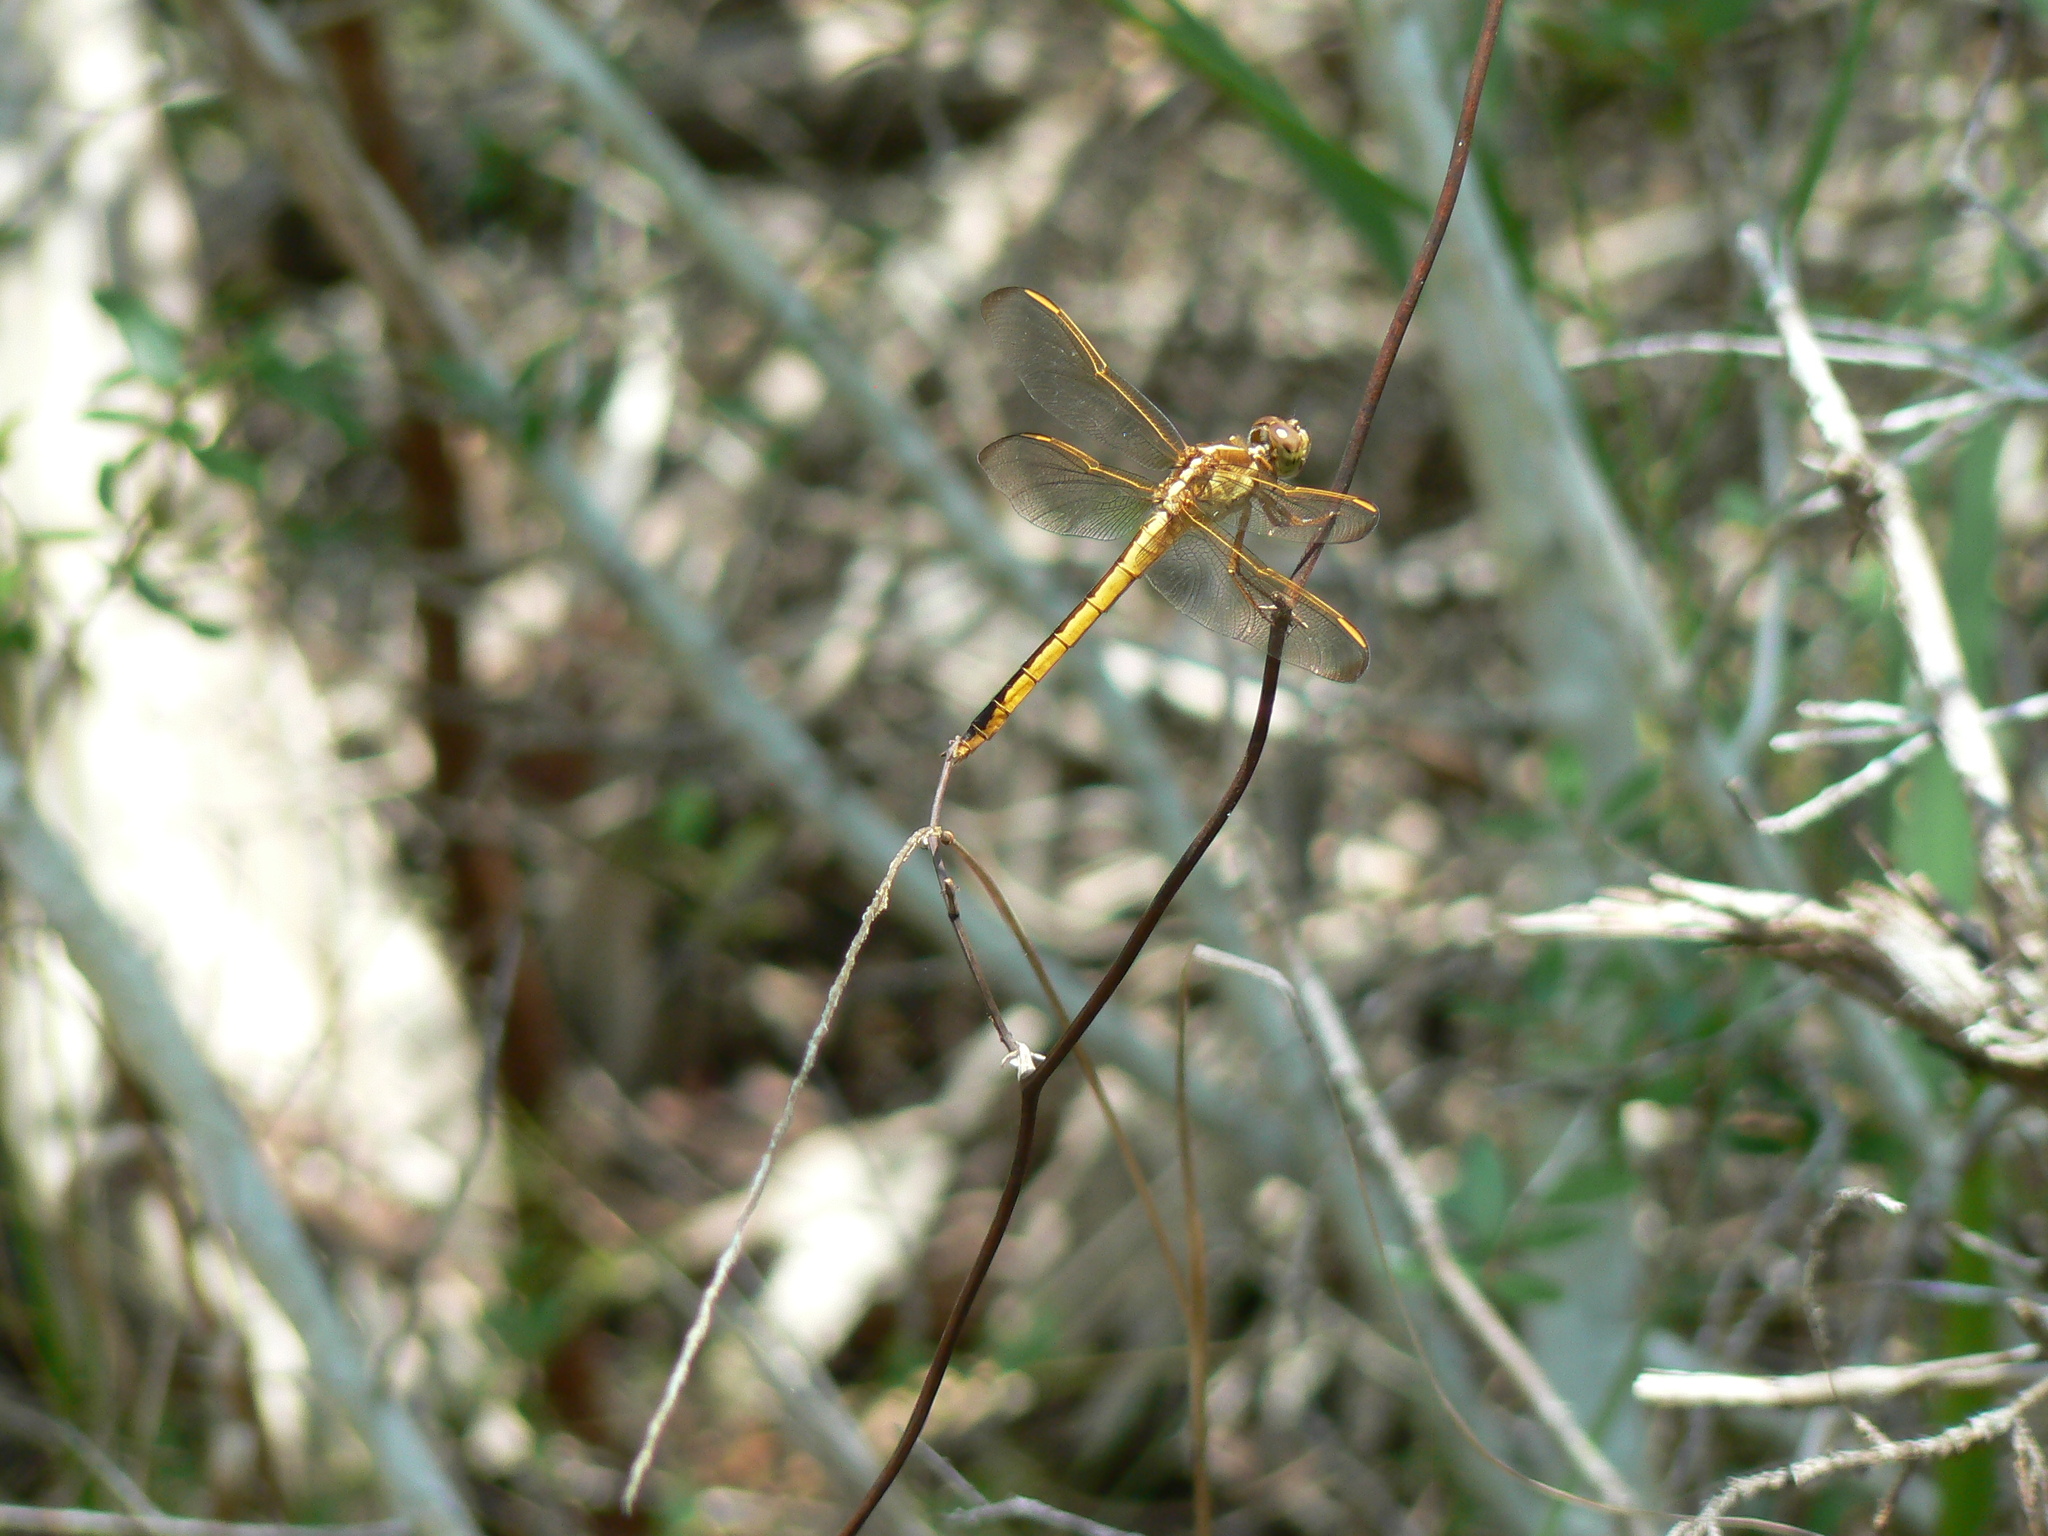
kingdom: Animalia
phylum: Arthropoda
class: Insecta
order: Odonata
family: Libellulidae
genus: Libellula
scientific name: Libellula needhami
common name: Needham's skimmer
